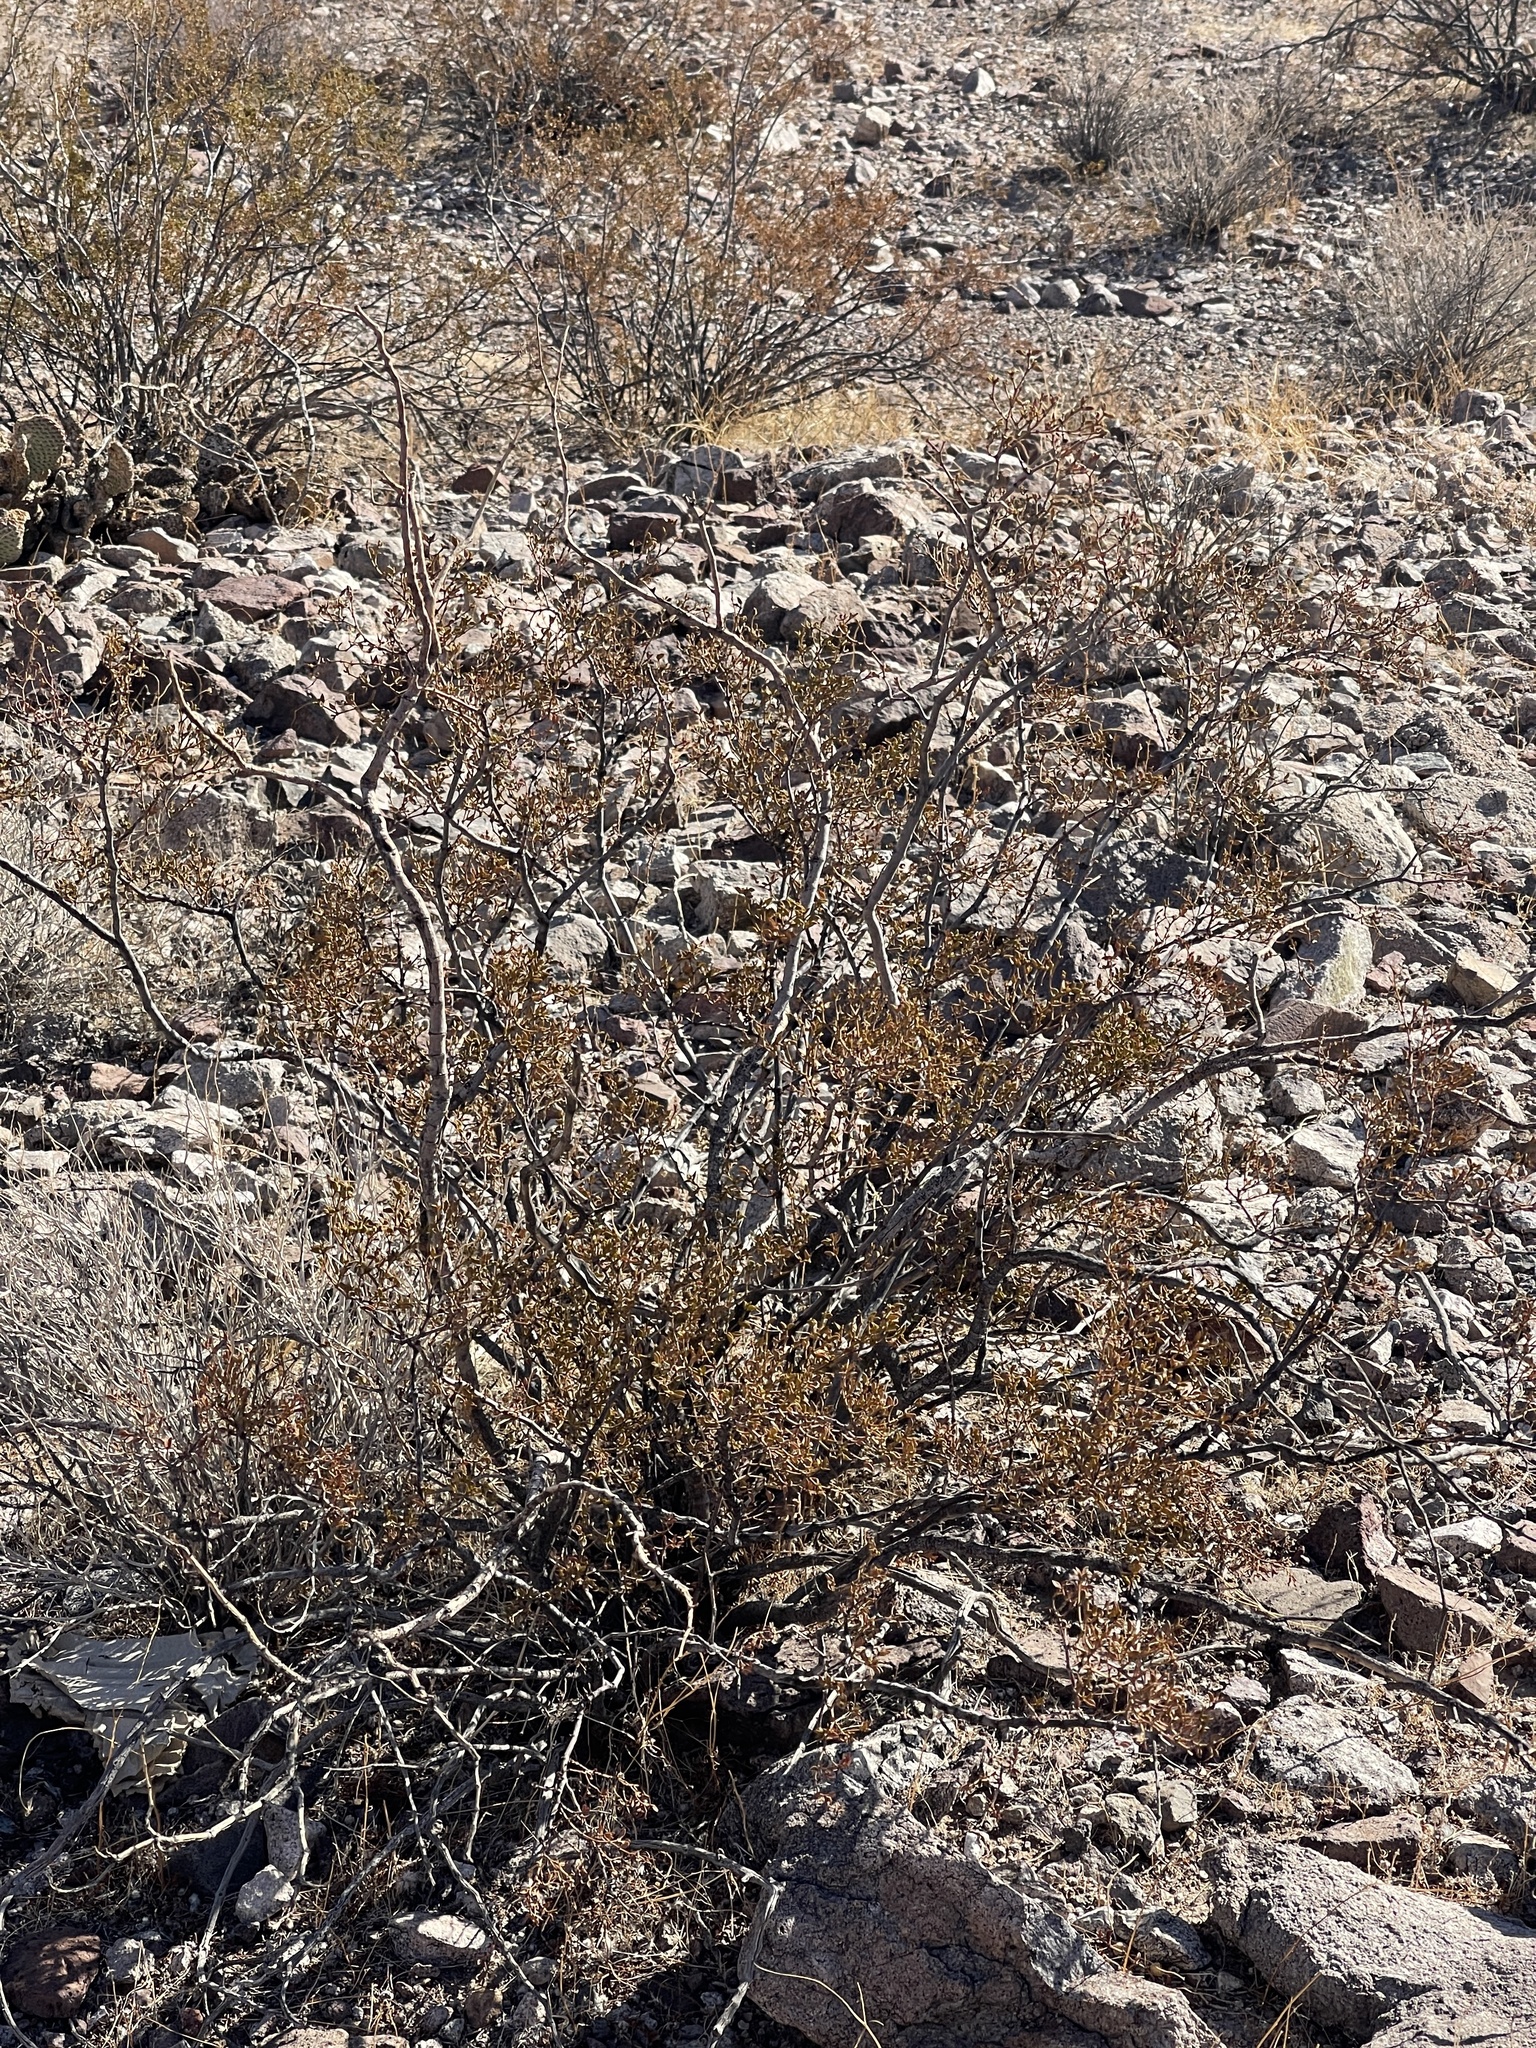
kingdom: Plantae
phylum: Tracheophyta
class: Magnoliopsida
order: Zygophyllales
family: Zygophyllaceae
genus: Larrea
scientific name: Larrea tridentata
